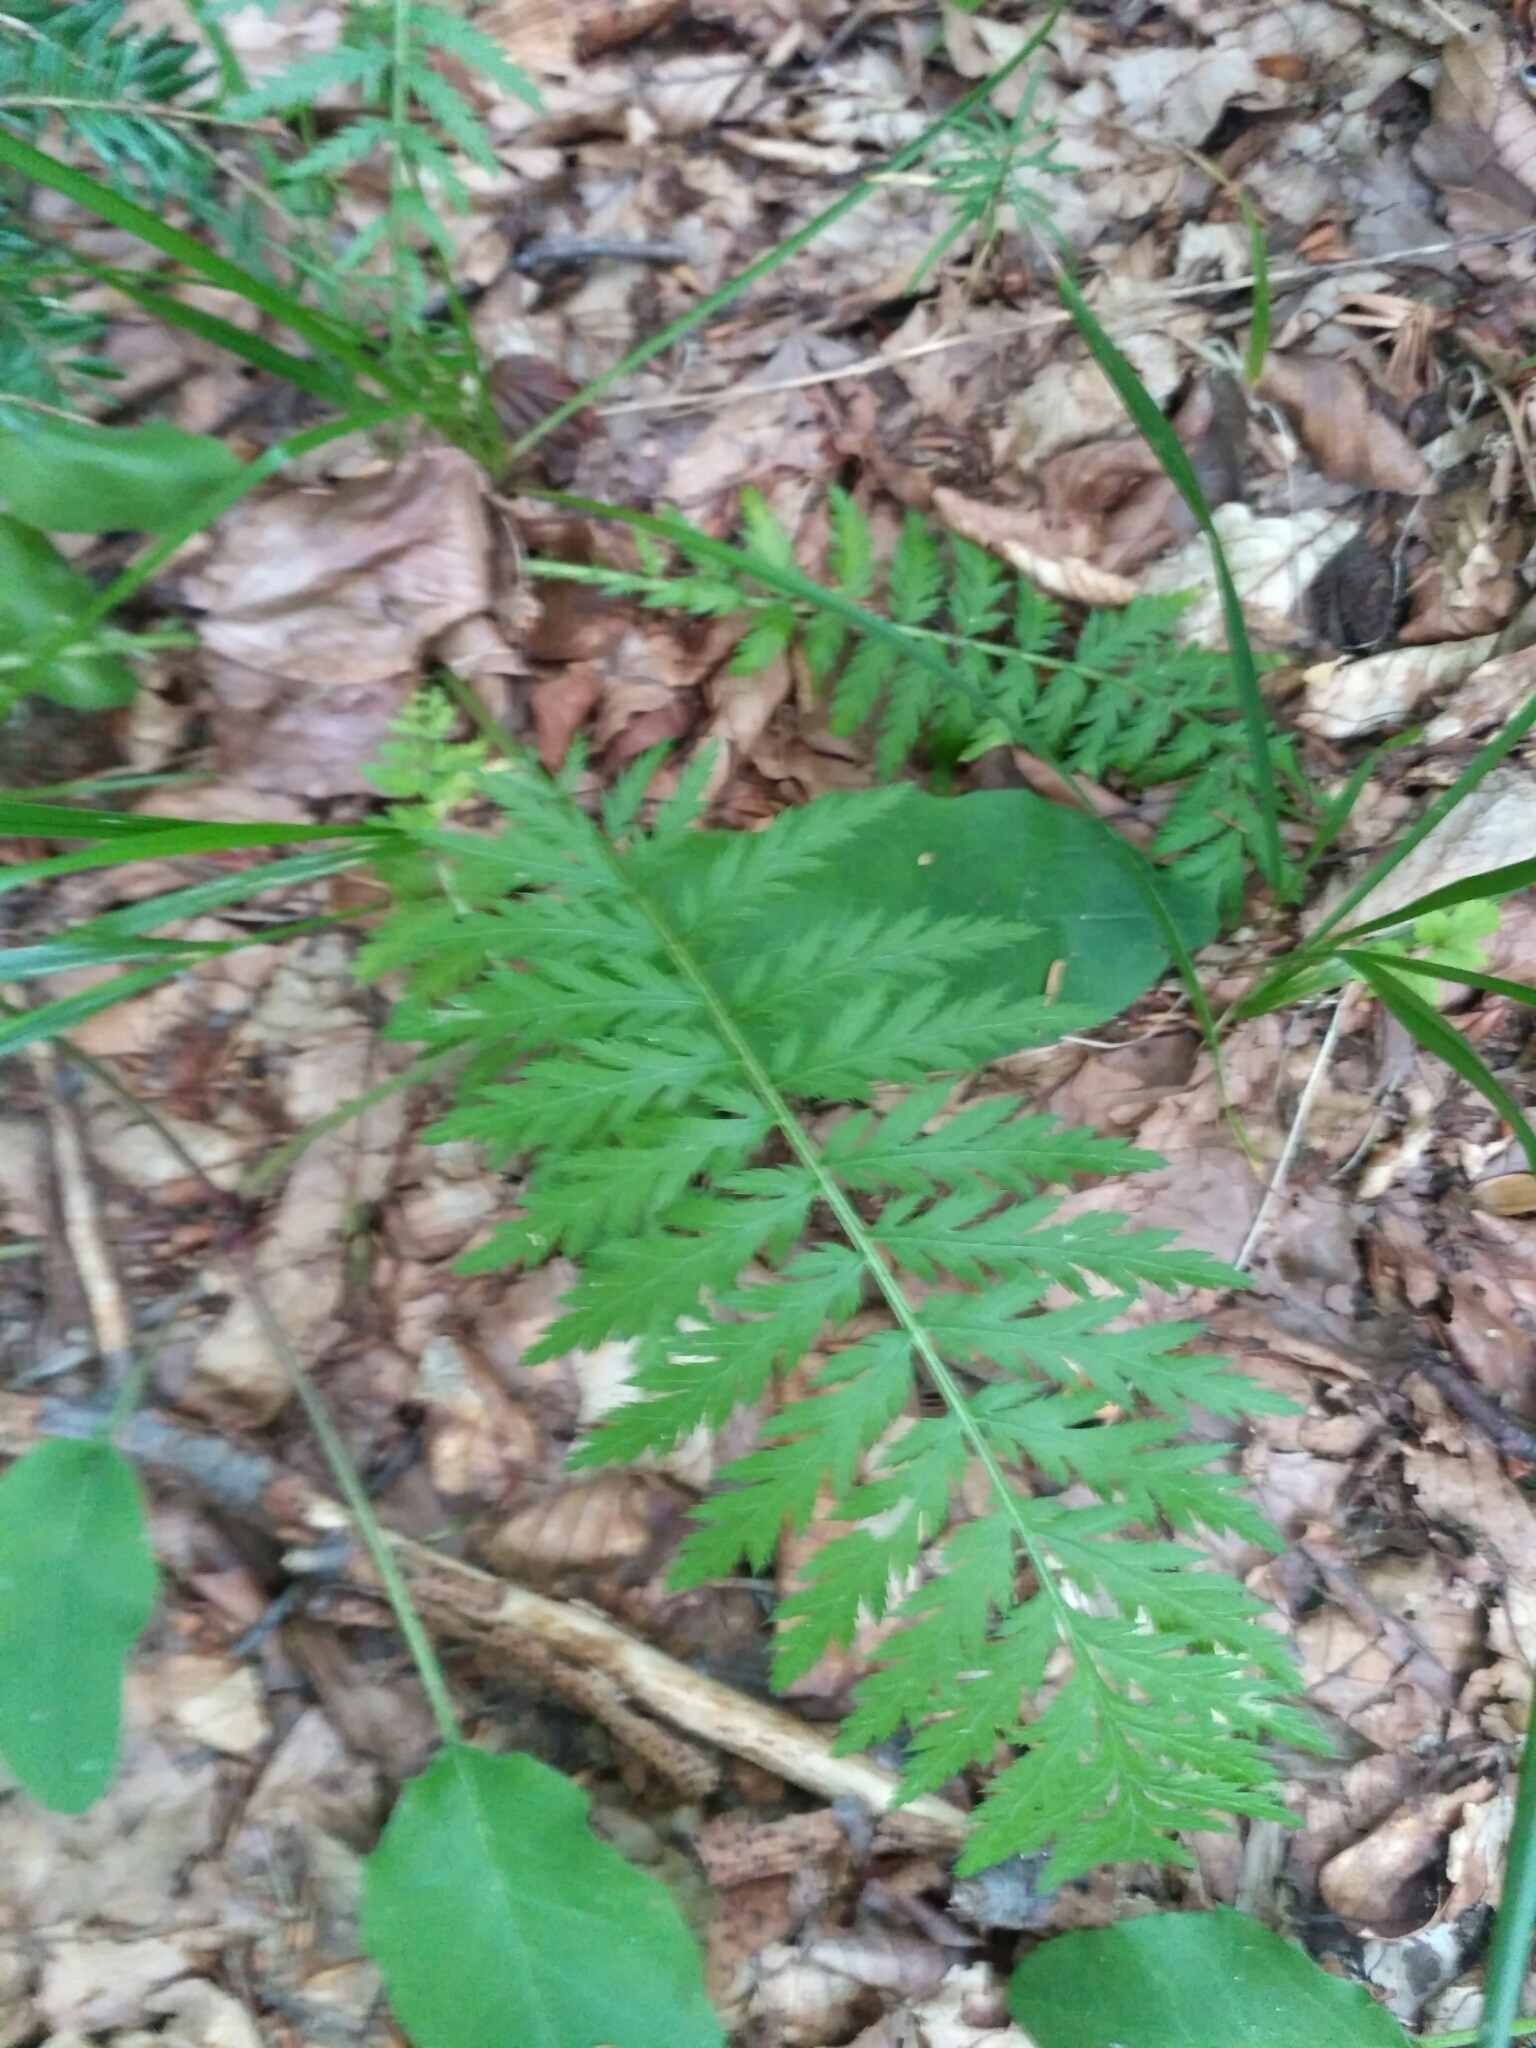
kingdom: Plantae
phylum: Tracheophyta
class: Magnoliopsida
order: Asterales
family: Asteraceae
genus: Tanacetum
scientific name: Tanacetum corymbosum
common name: Scentless feverfew
